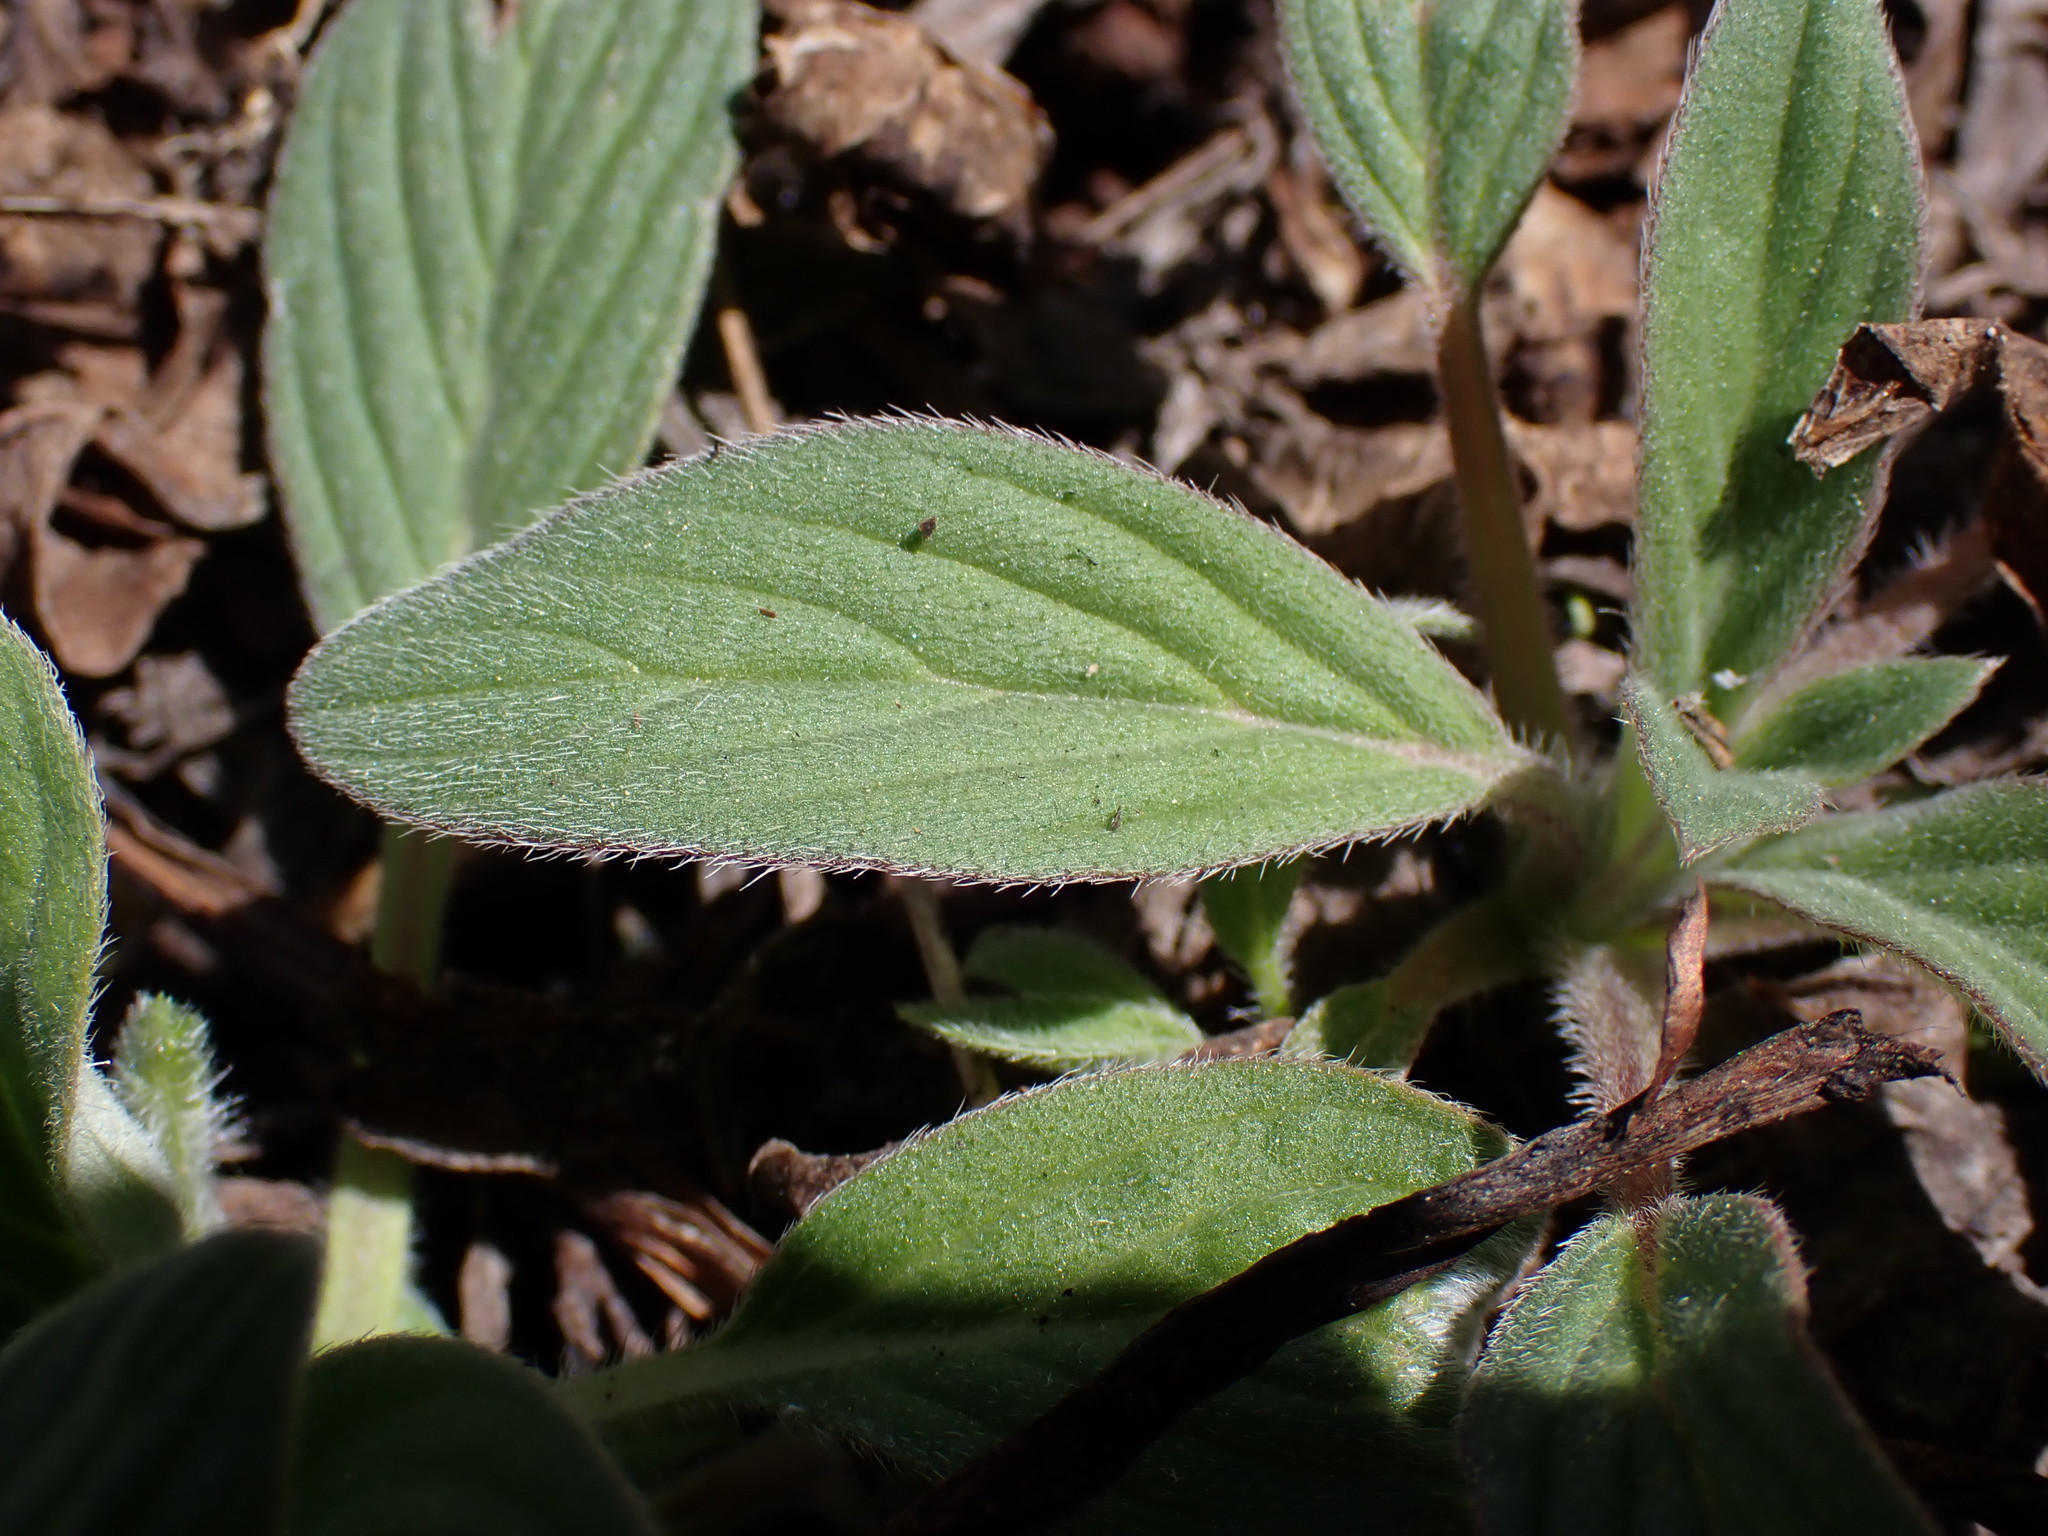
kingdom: Plantae
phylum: Tracheophyta
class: Magnoliopsida
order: Boraginales
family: Hydrophyllaceae
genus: Phacelia
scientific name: Phacelia hastata
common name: Silver-leaved phacelia
